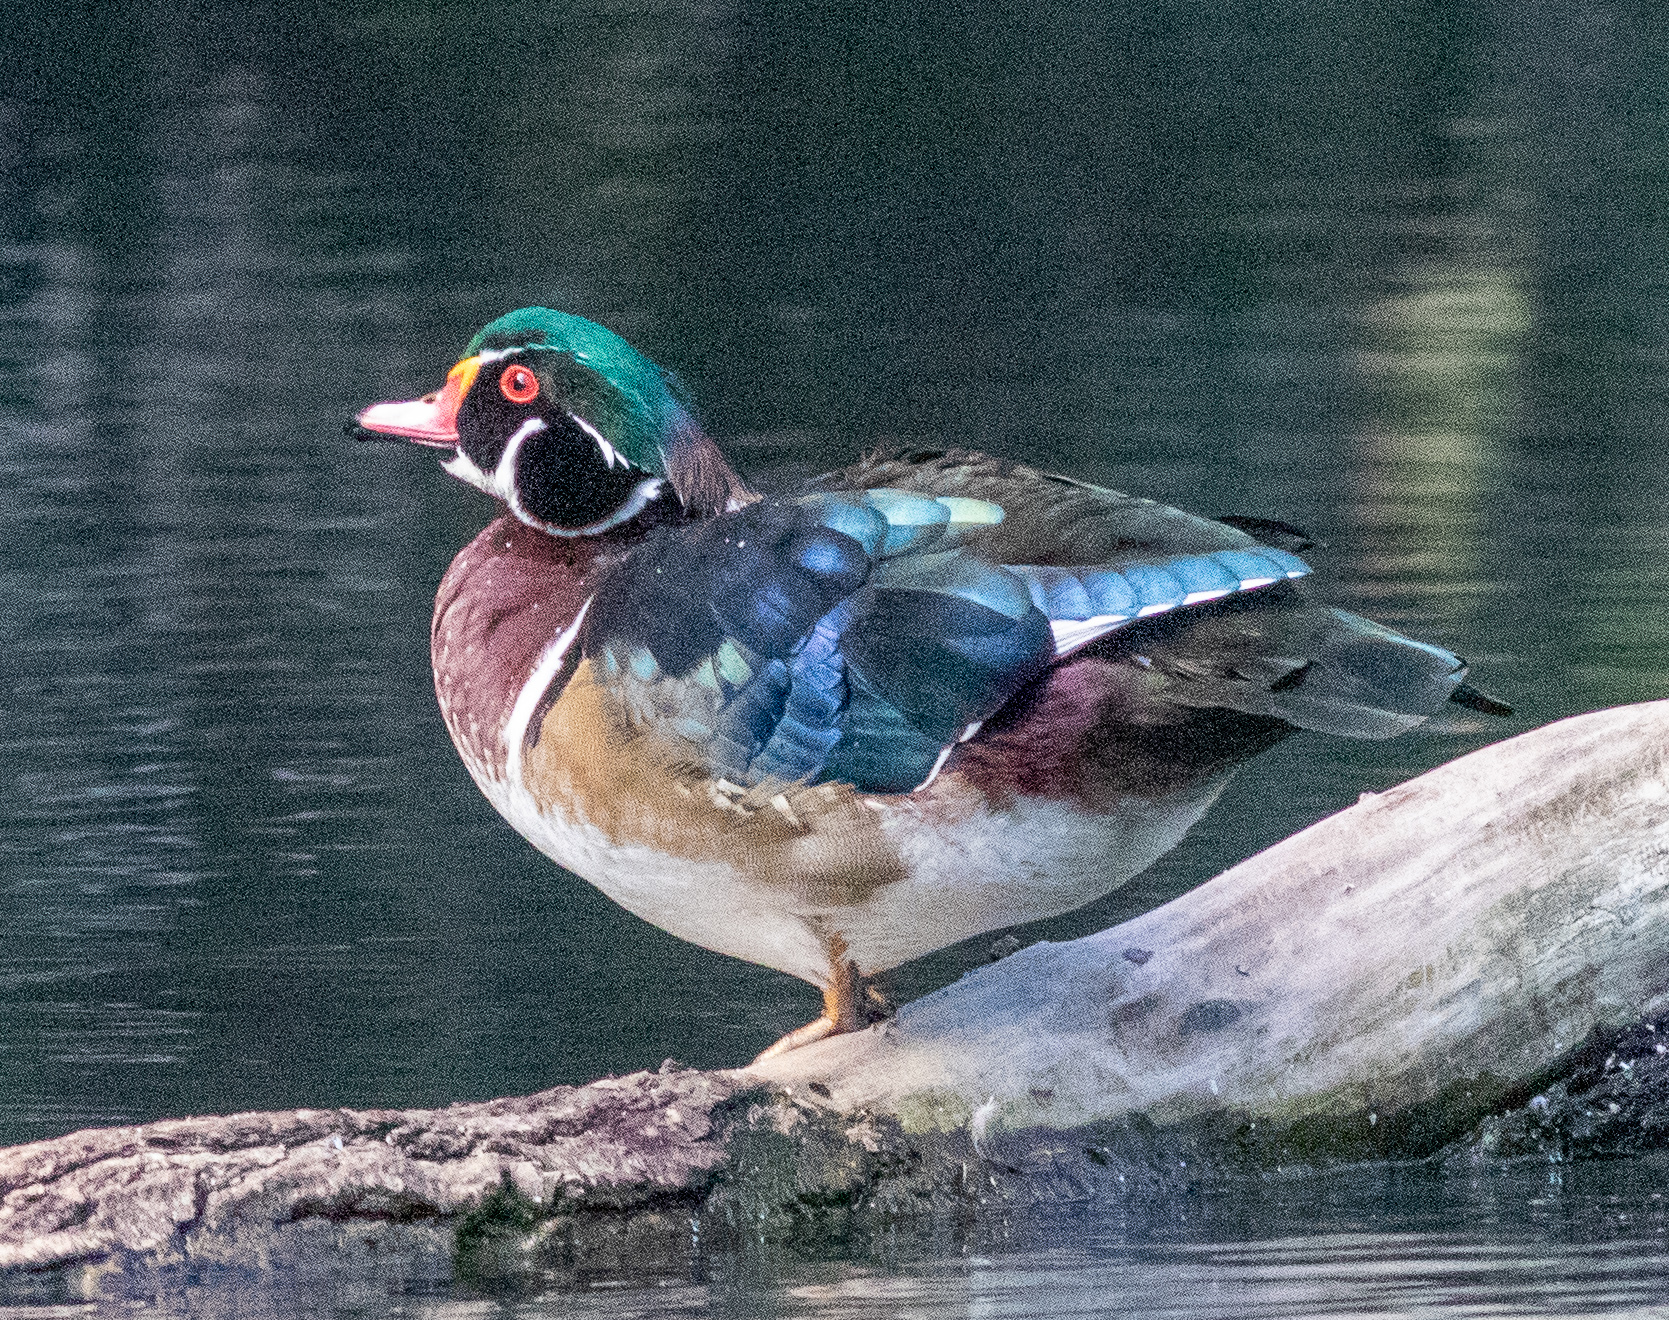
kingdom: Animalia
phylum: Chordata
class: Aves
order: Anseriformes
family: Anatidae
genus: Aix
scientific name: Aix sponsa
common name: Wood duck
